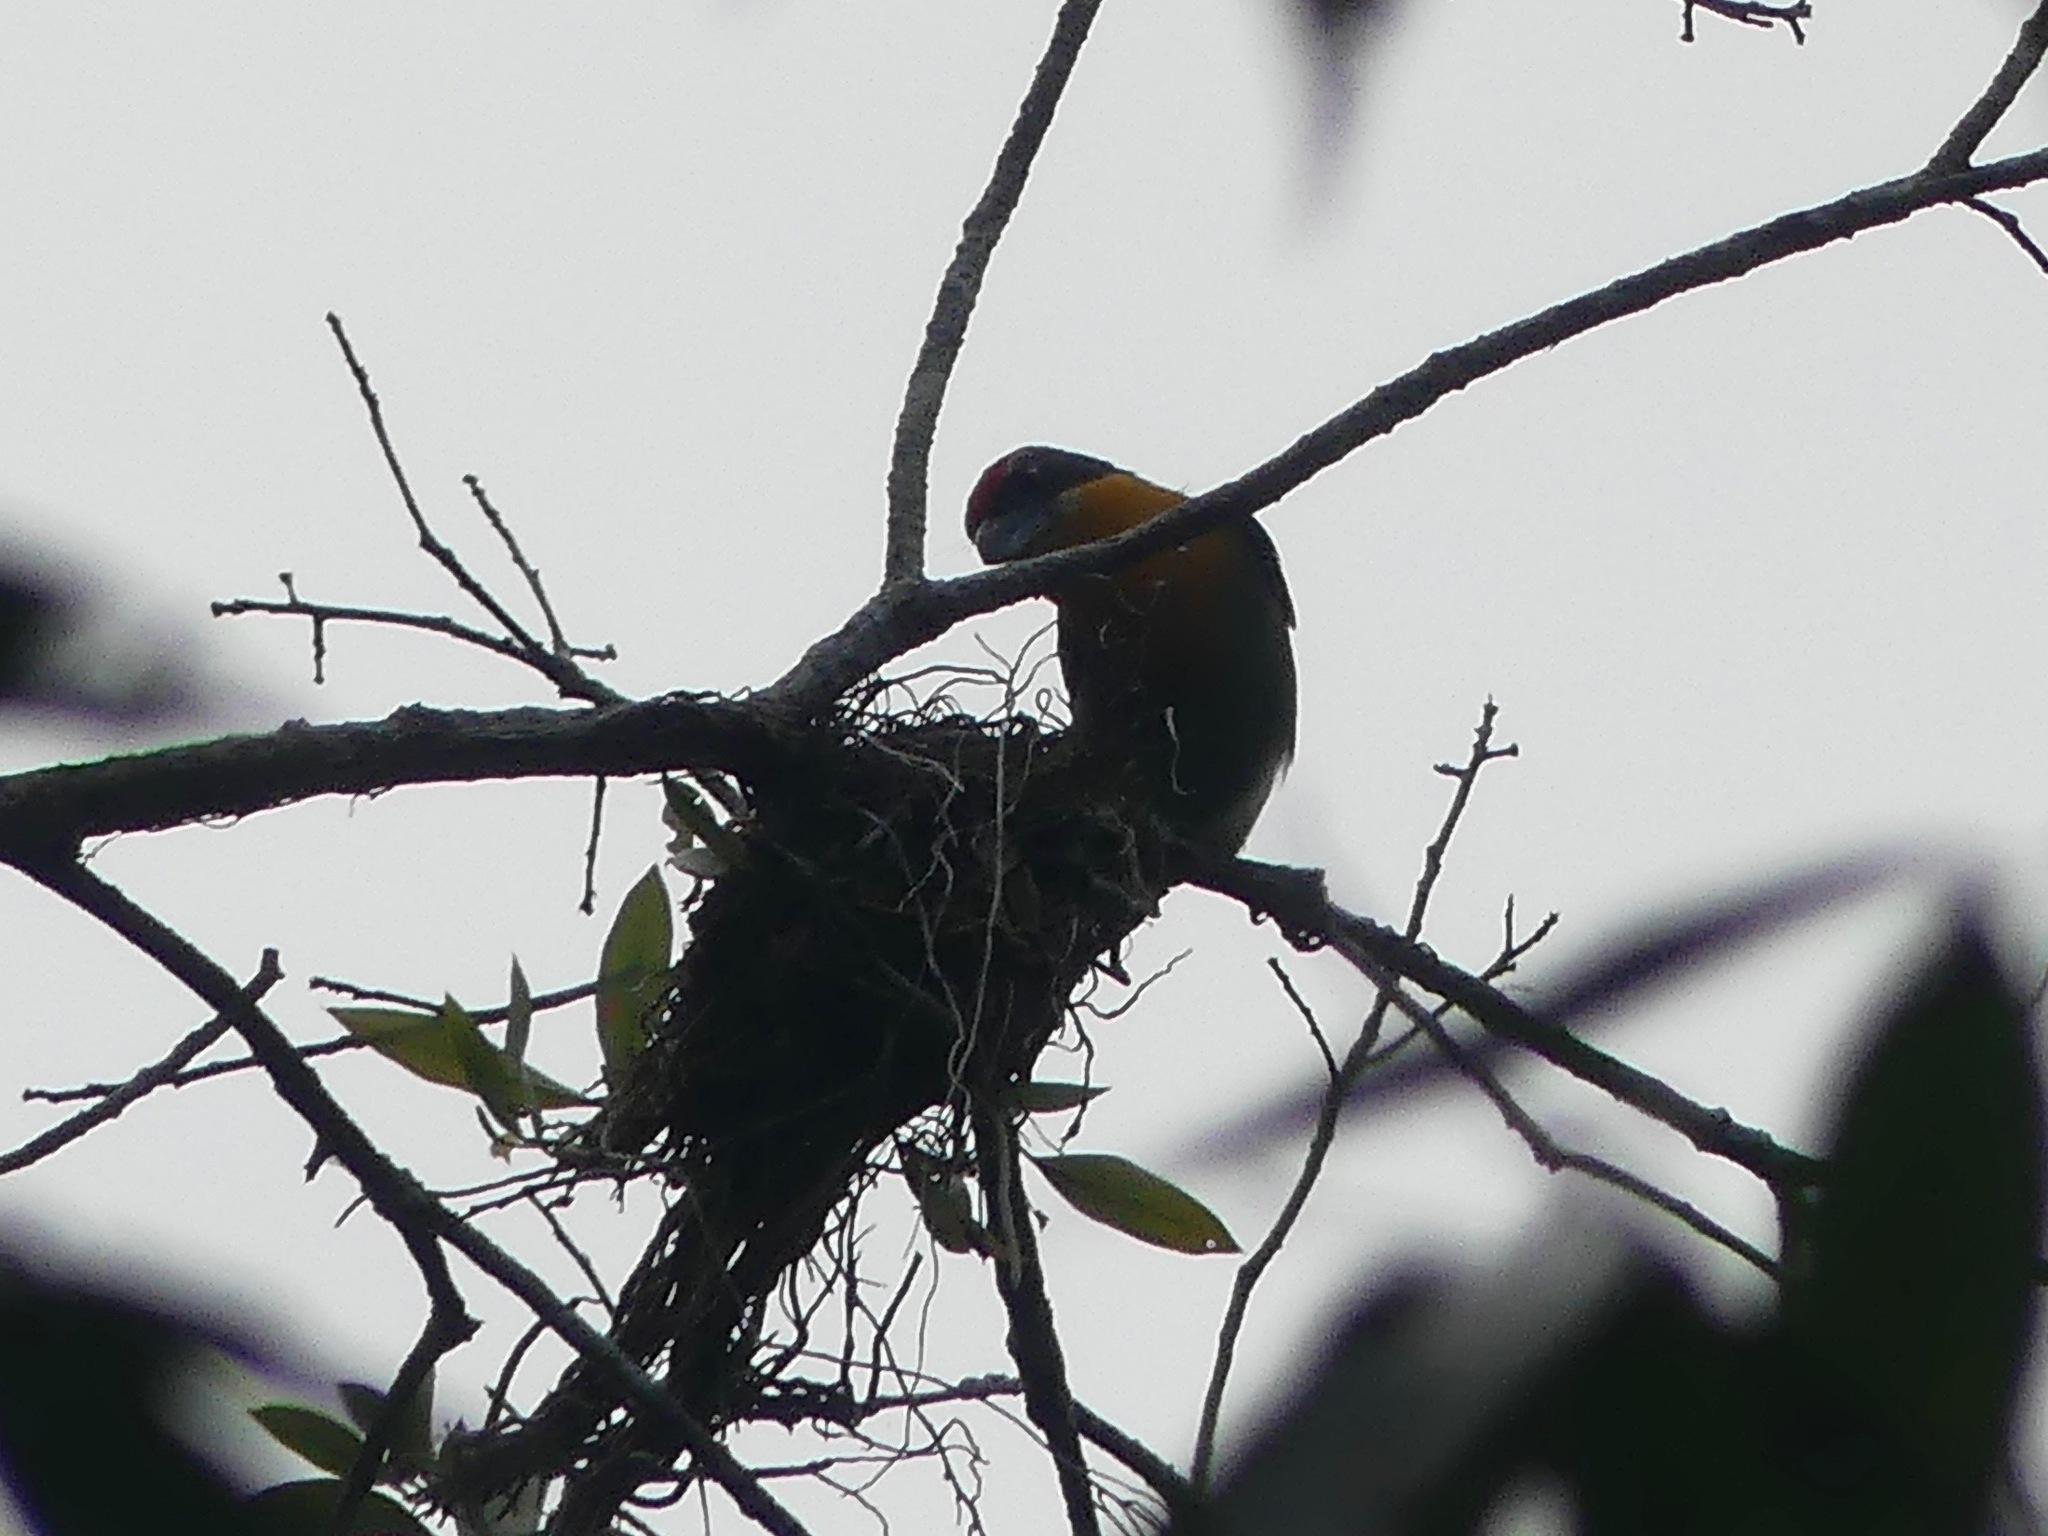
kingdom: Animalia
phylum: Chordata
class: Aves
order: Piciformes
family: Capitonidae
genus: Capito
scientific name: Capito aurovirens
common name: Scarlet-crowned barbet
